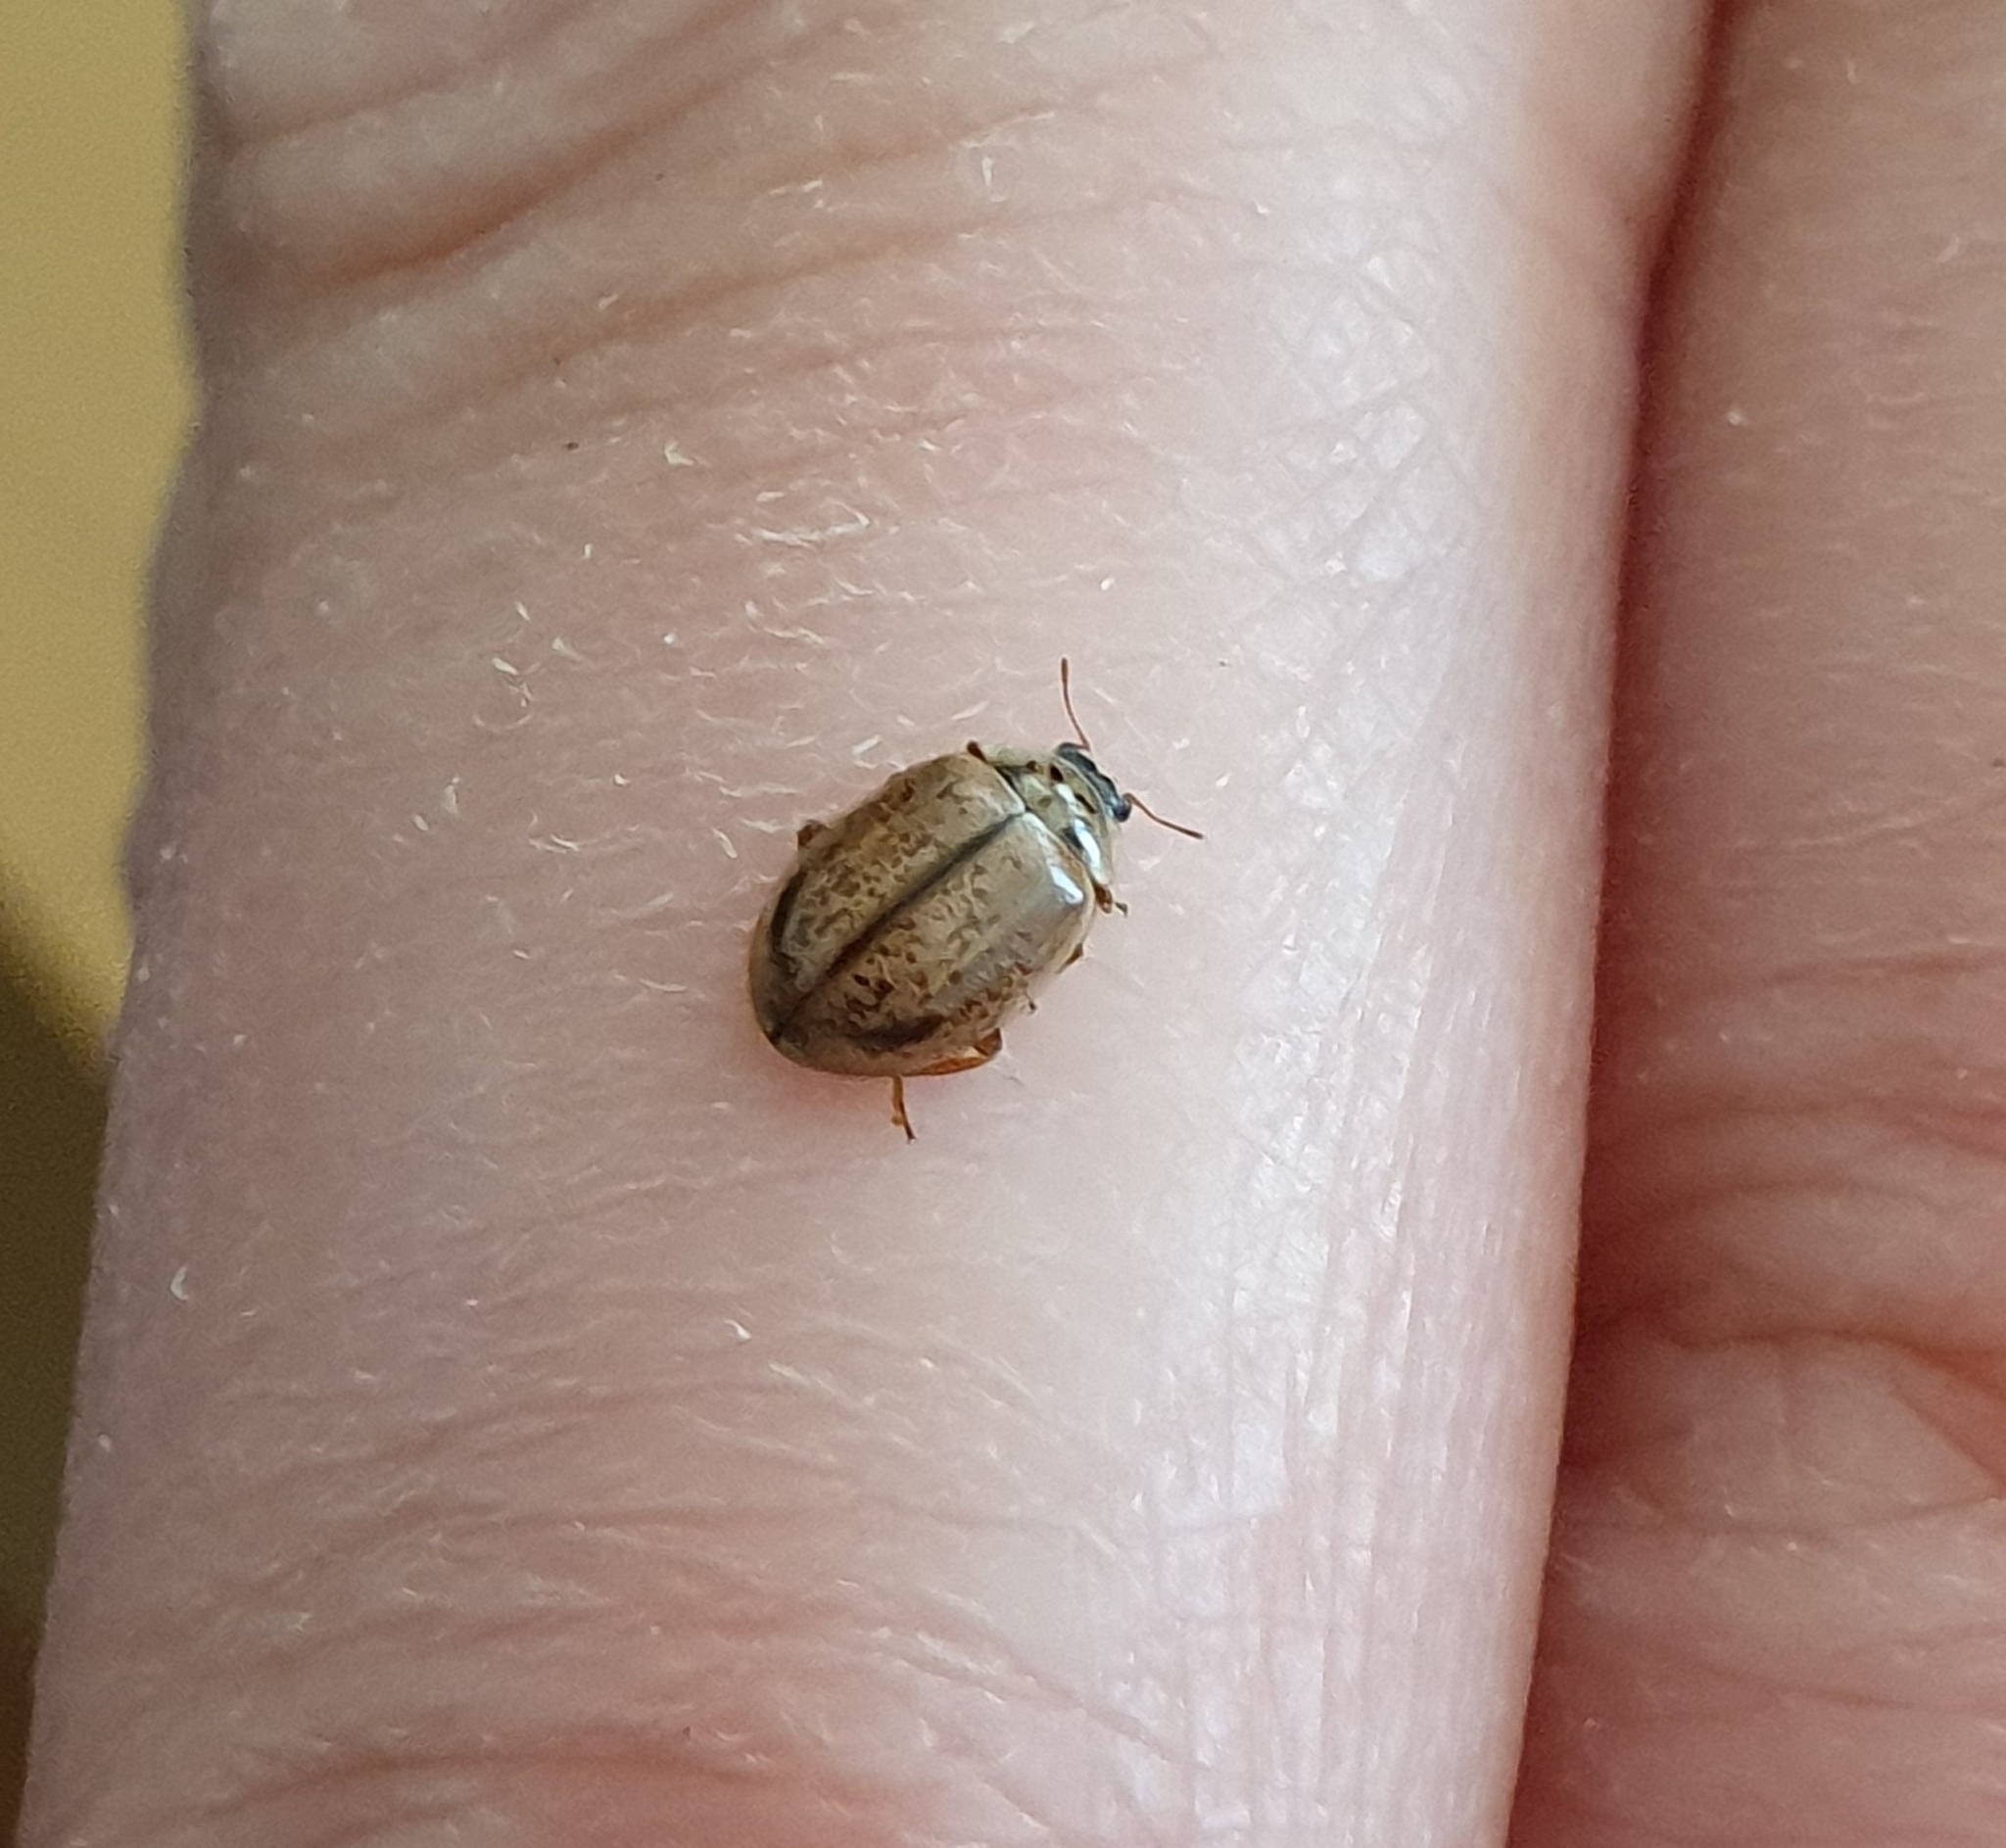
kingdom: Animalia
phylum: Arthropoda
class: Insecta
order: Coleoptera
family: Coccinellidae
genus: Aphidecta
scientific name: Aphidecta obliterata
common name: Larch ladybird
